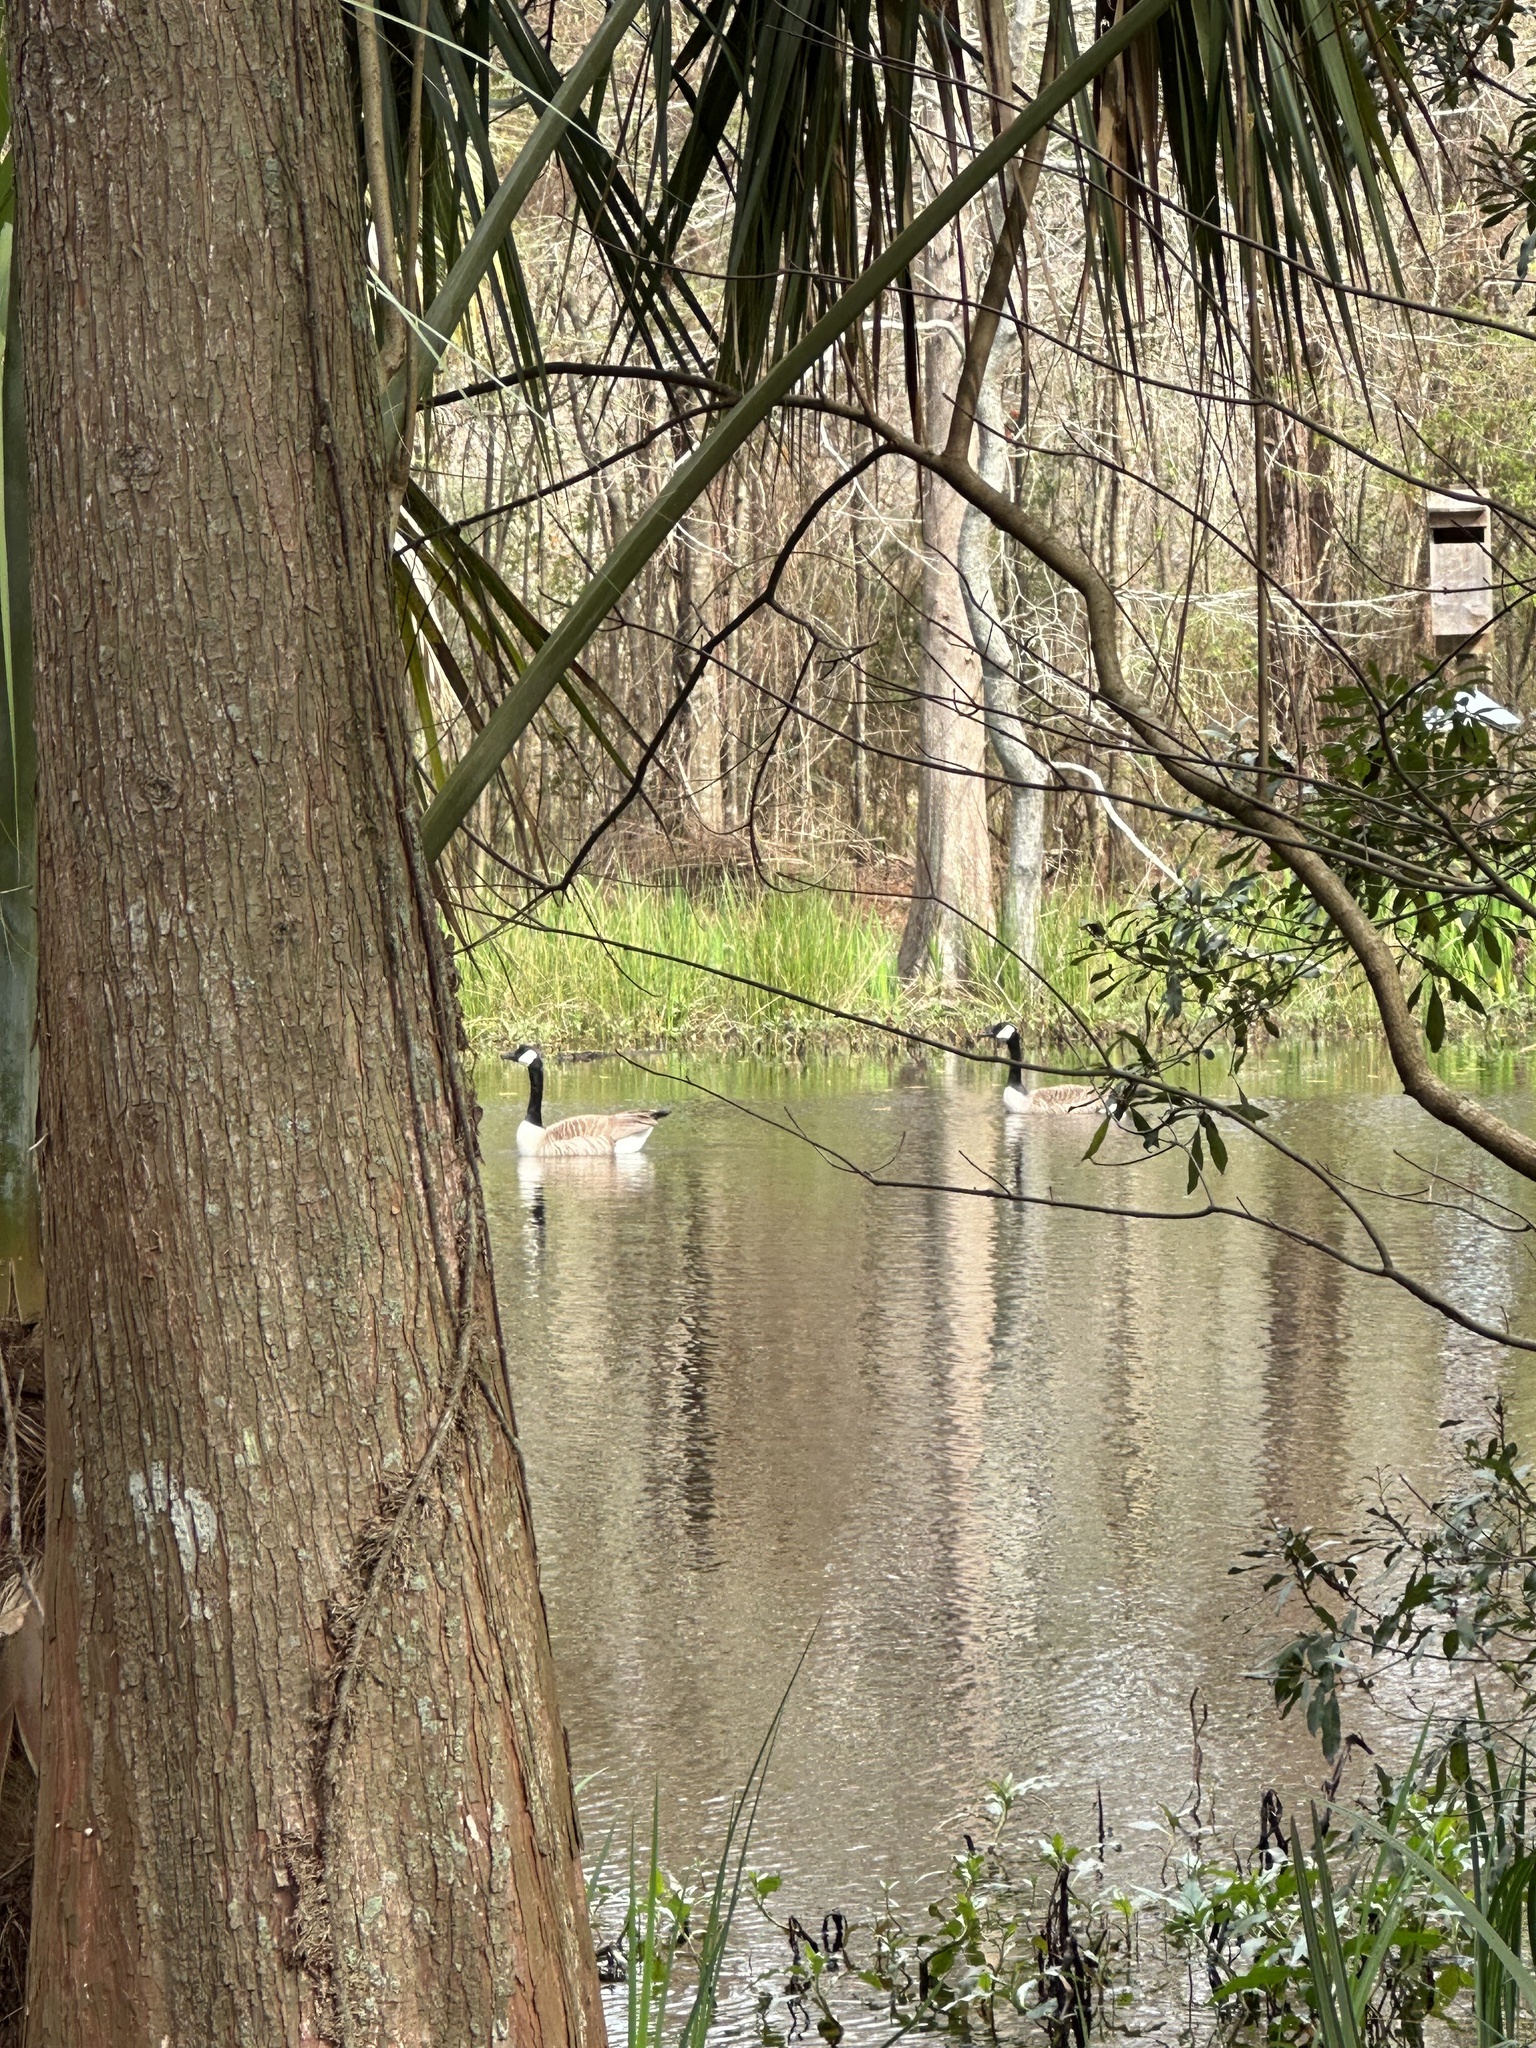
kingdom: Animalia
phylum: Chordata
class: Aves
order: Anseriformes
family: Anatidae
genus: Branta
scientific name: Branta canadensis
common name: Canada goose
